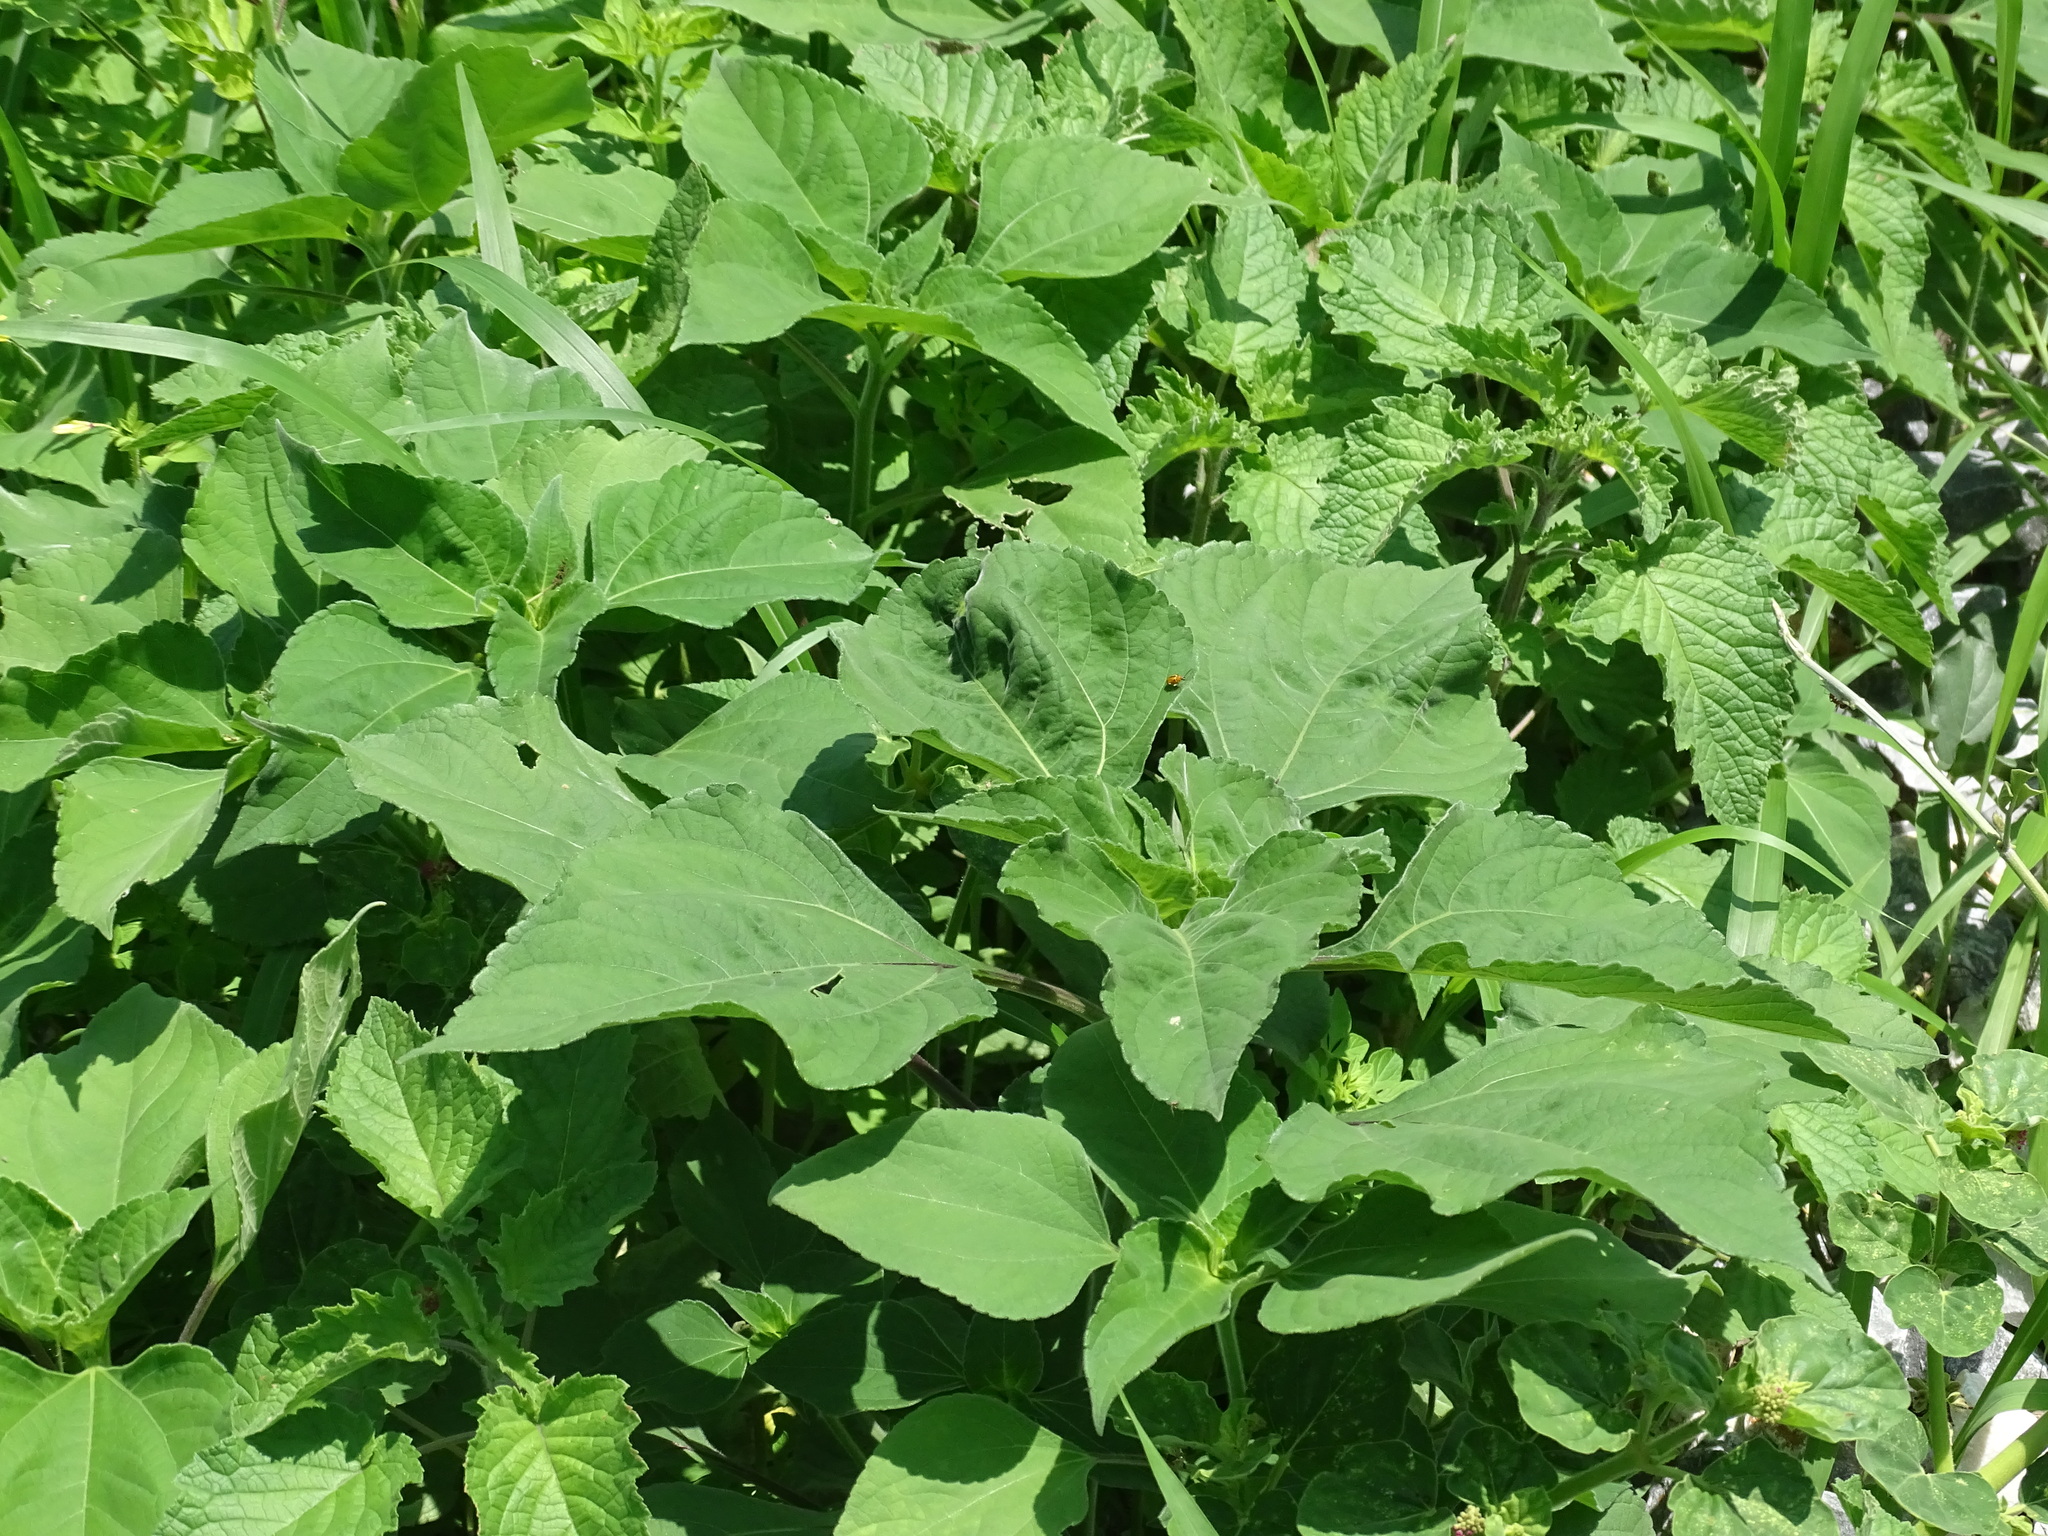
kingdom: Plantae
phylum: Tracheophyta
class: Magnoliopsida
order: Asterales
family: Asteraceae
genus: Tithonia
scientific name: Tithonia rotundifolia
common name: Sunflower
